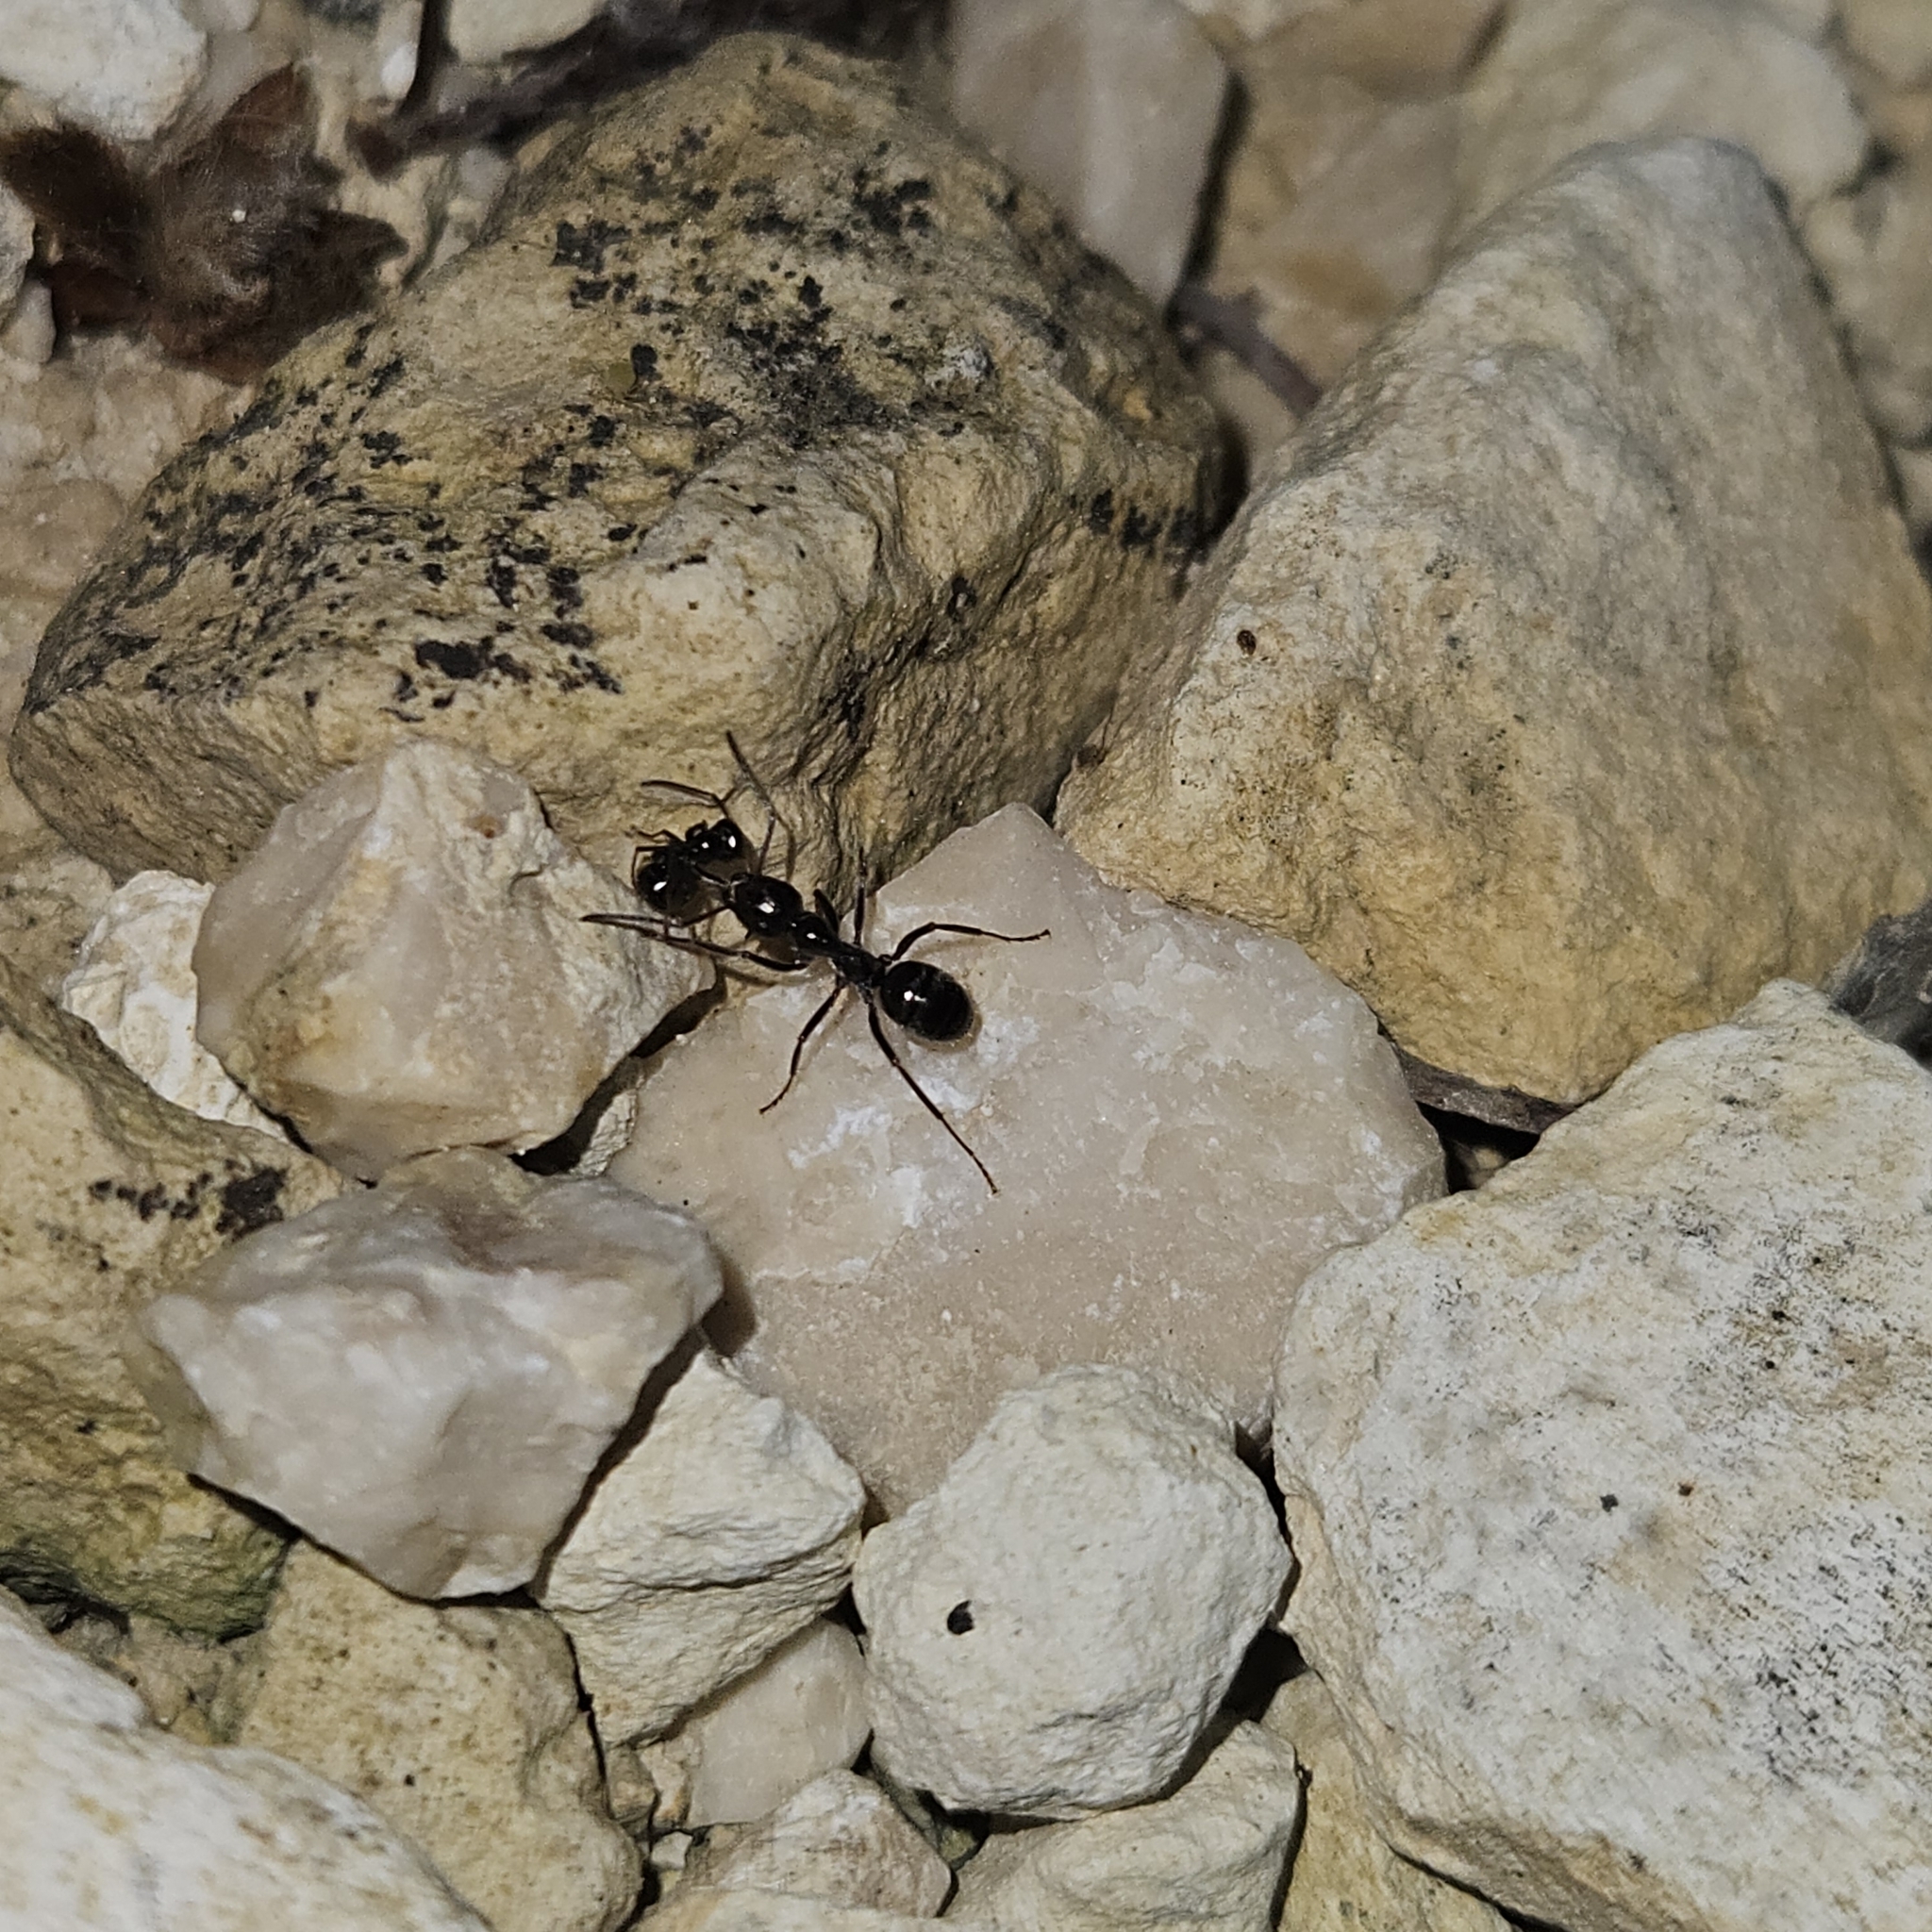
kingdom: Animalia
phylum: Arthropoda
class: Insecta
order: Hymenoptera
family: Formicidae
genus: Formica
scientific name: Formica gagates
